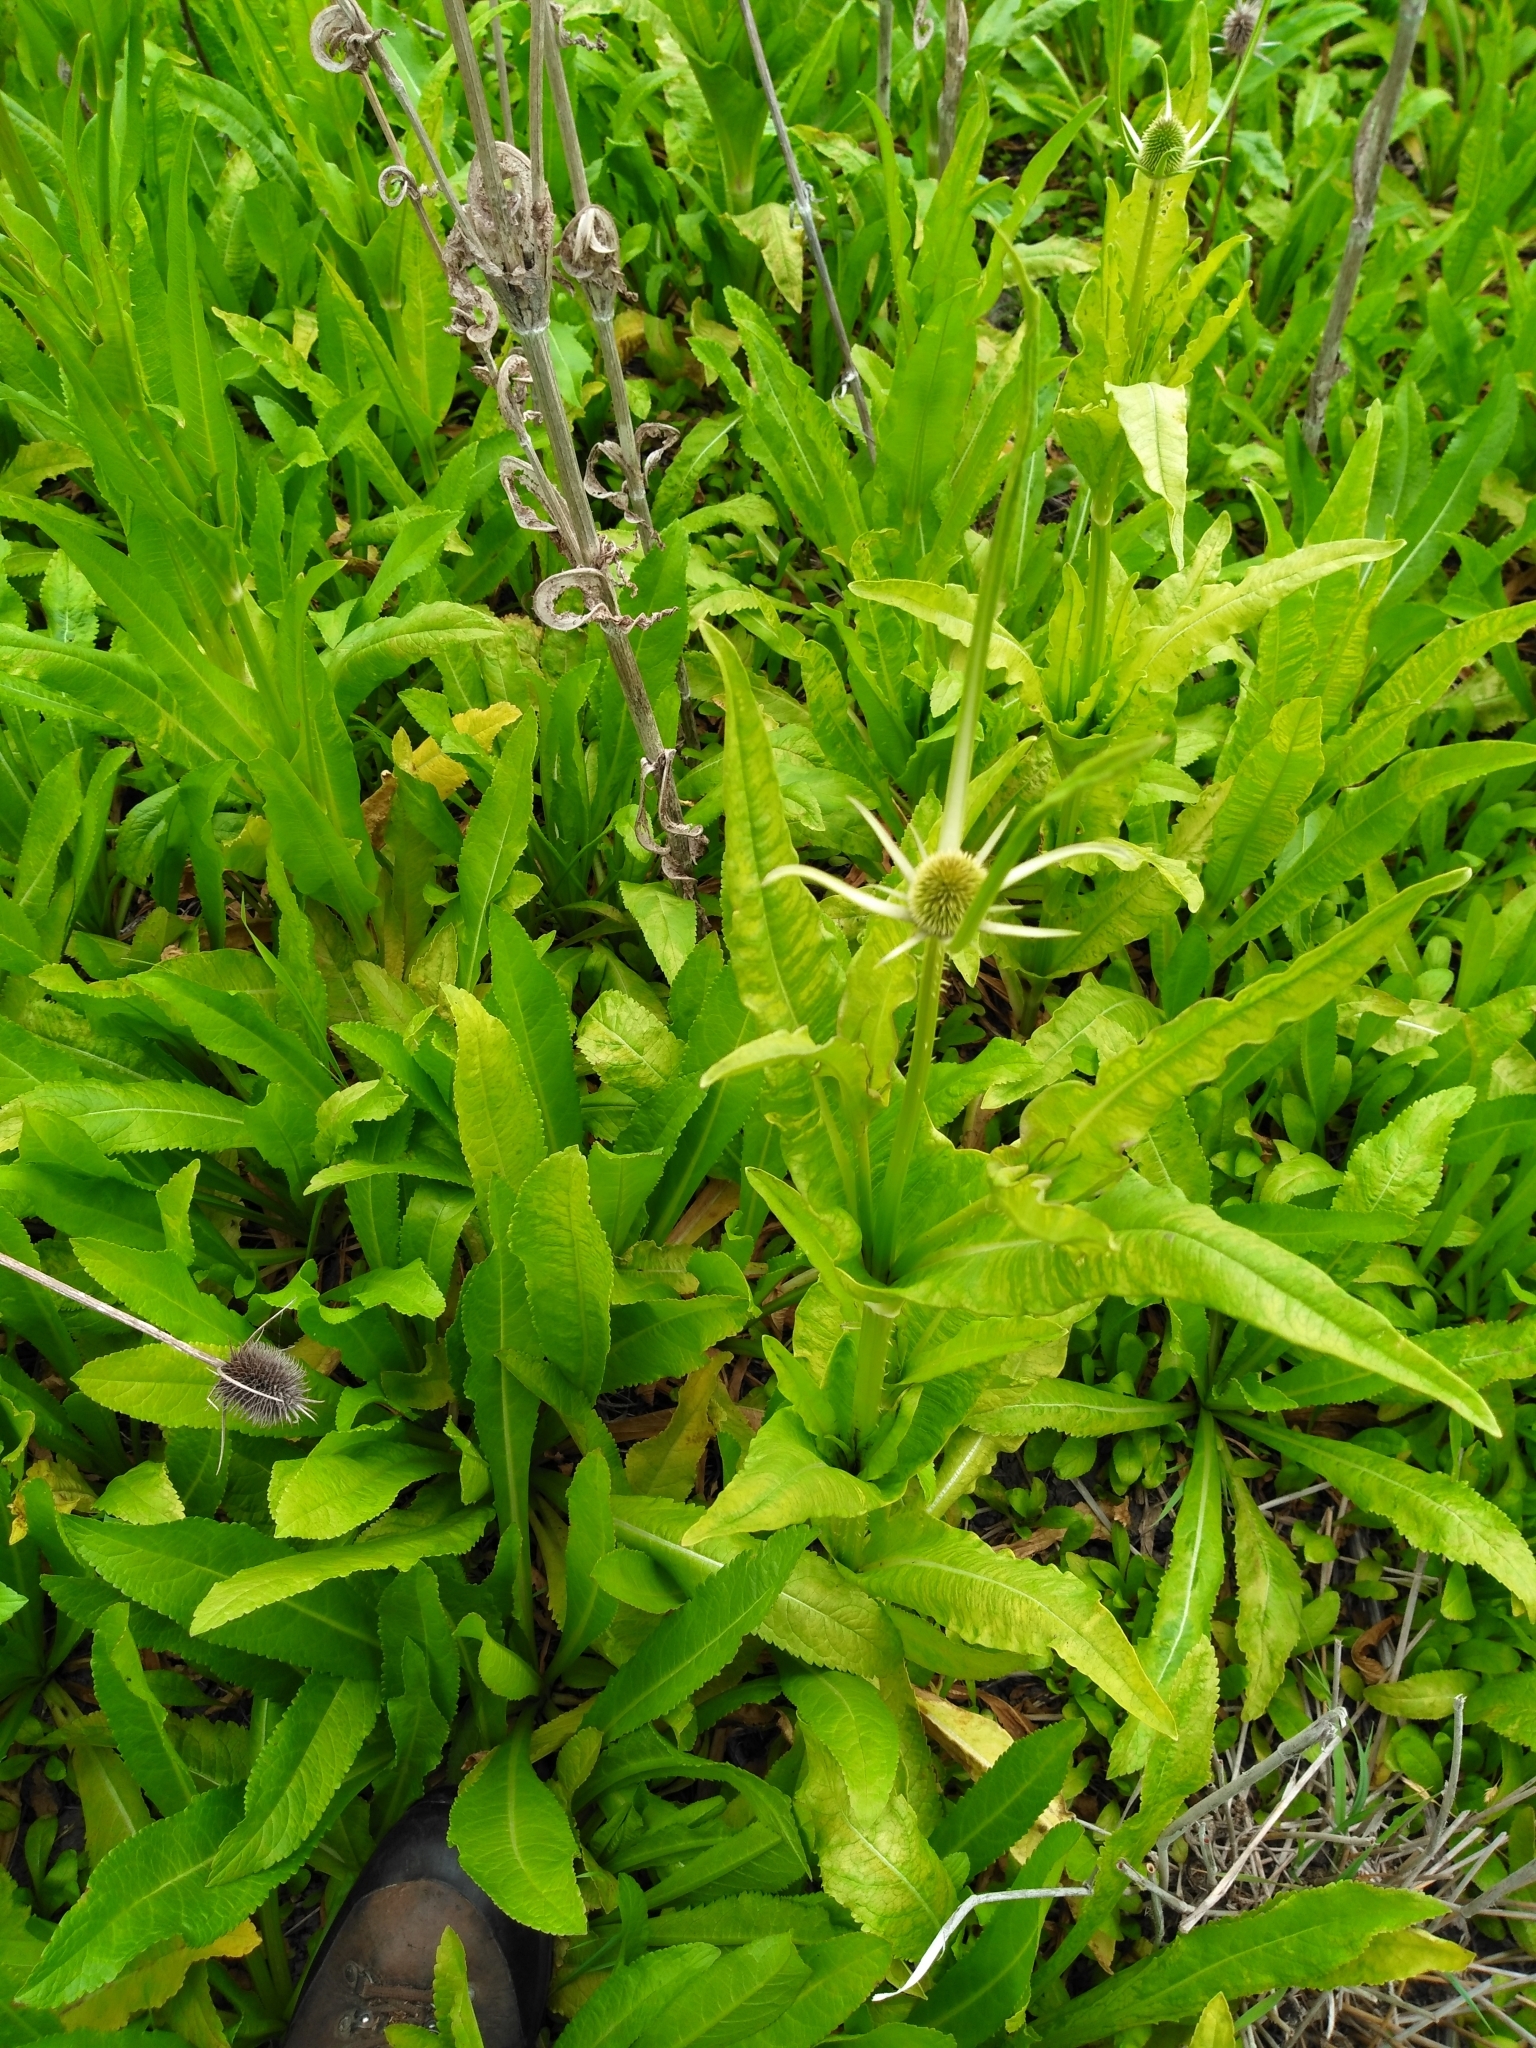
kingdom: Plantae
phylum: Tracheophyta
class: Magnoliopsida
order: Dipsacales
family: Caprifoliaceae
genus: Dipsacus
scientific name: Dipsacus sativus
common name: Fuller's teasel
